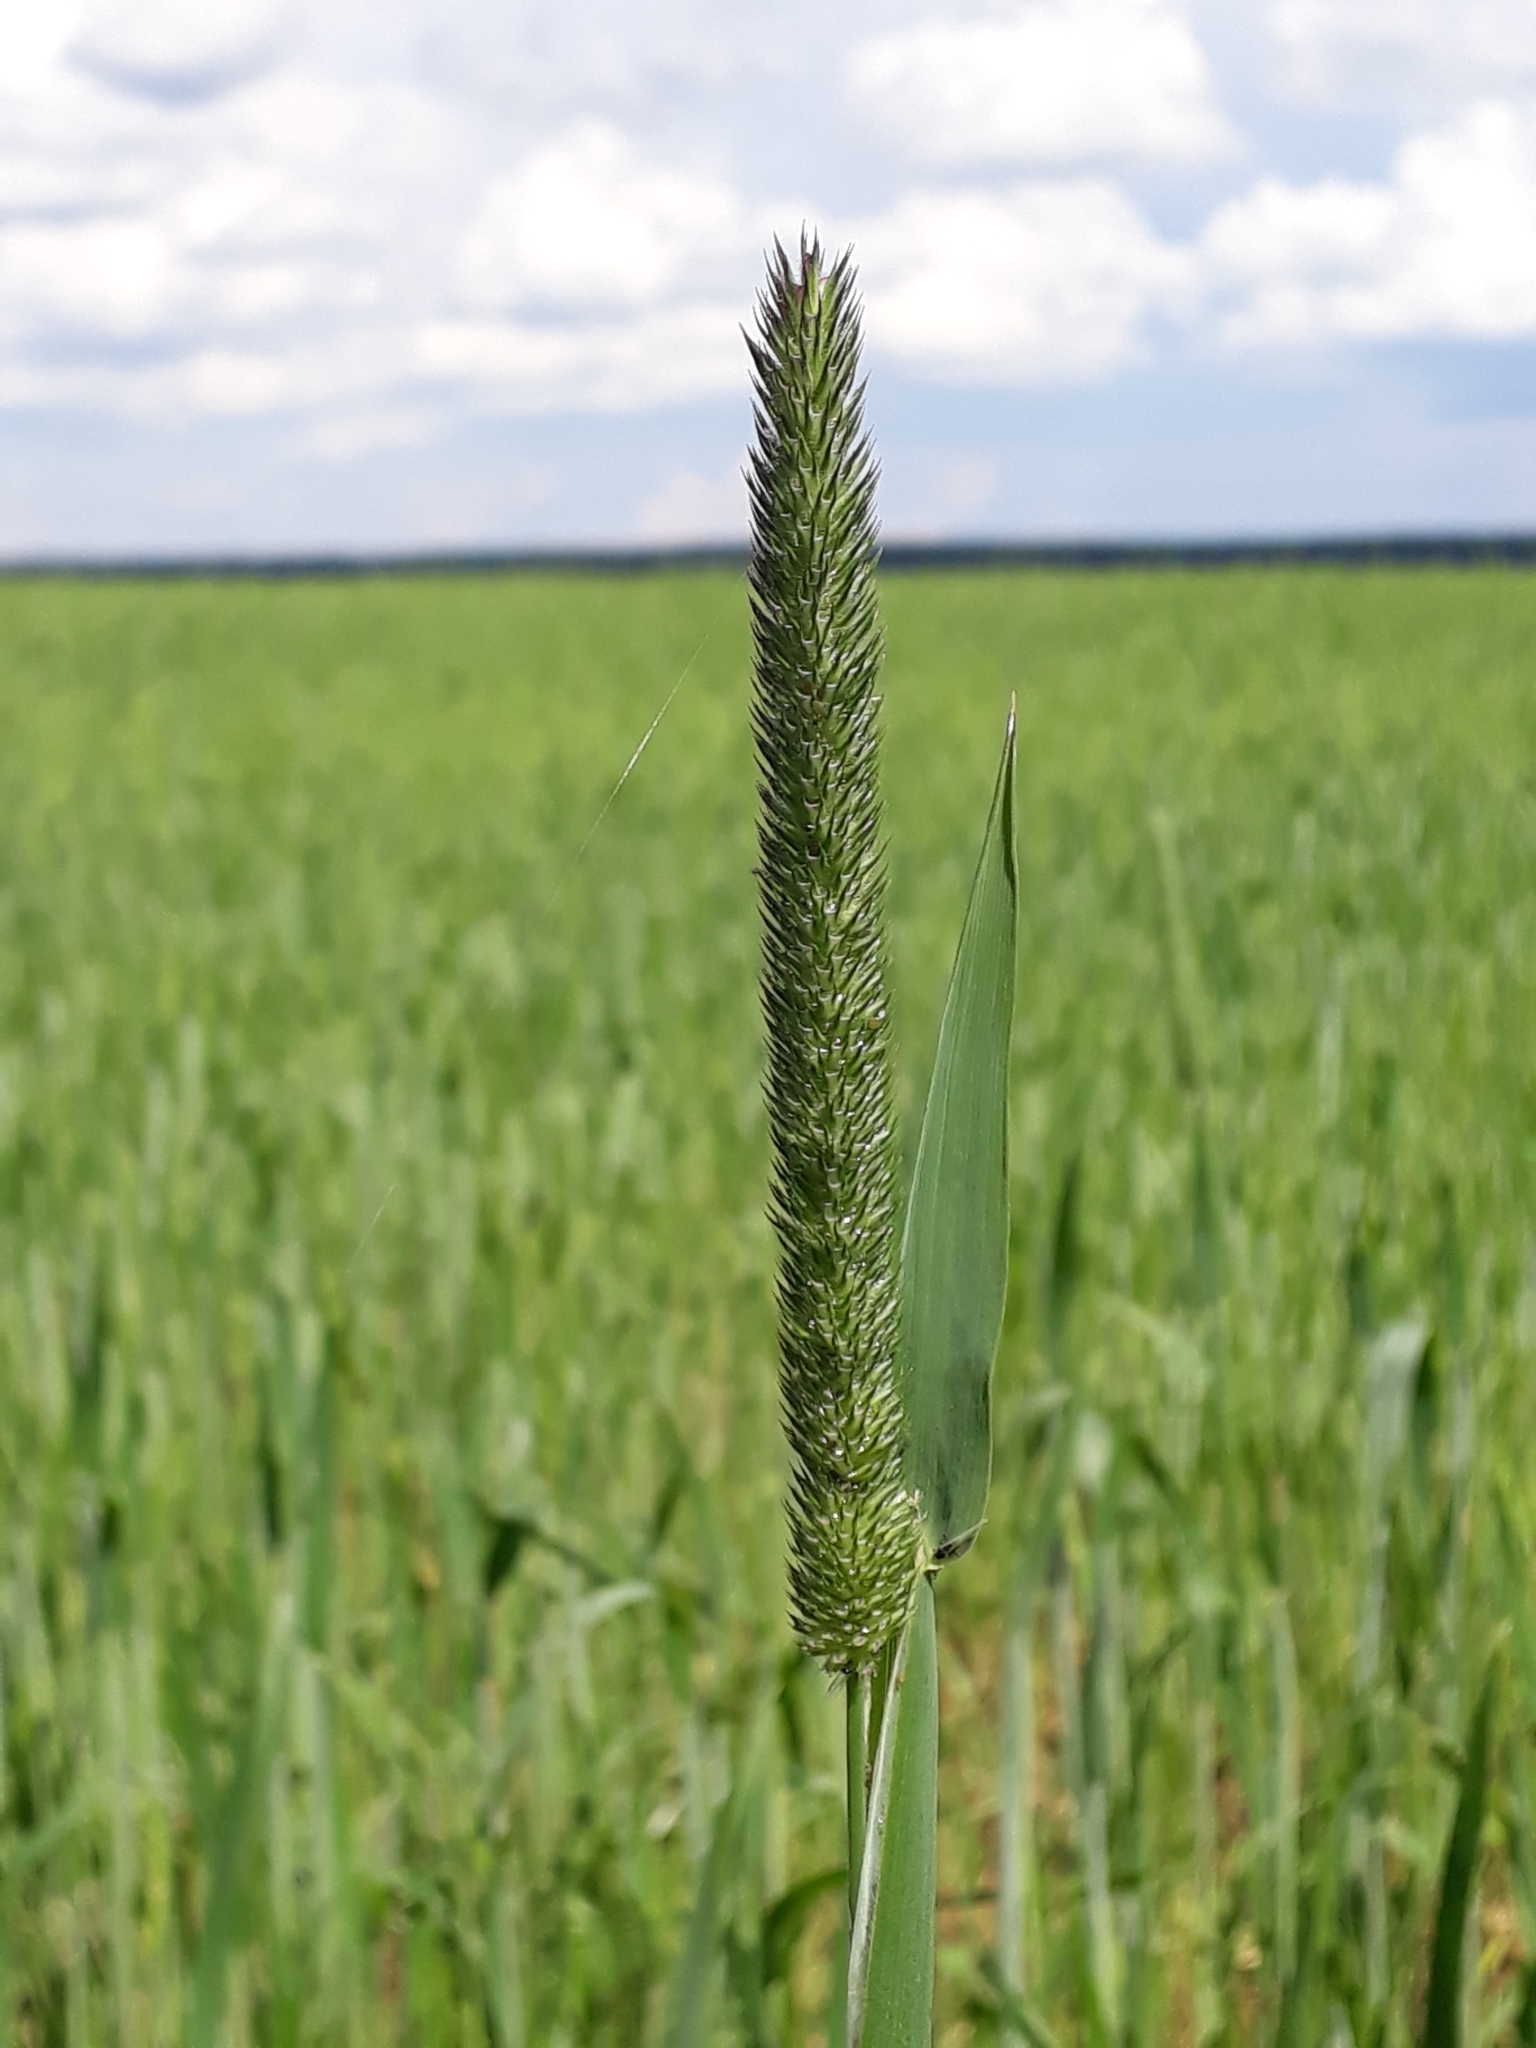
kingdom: Plantae
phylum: Tracheophyta
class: Liliopsida
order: Poales
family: Poaceae
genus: Phleum
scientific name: Phleum pratense
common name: Timothy grass
